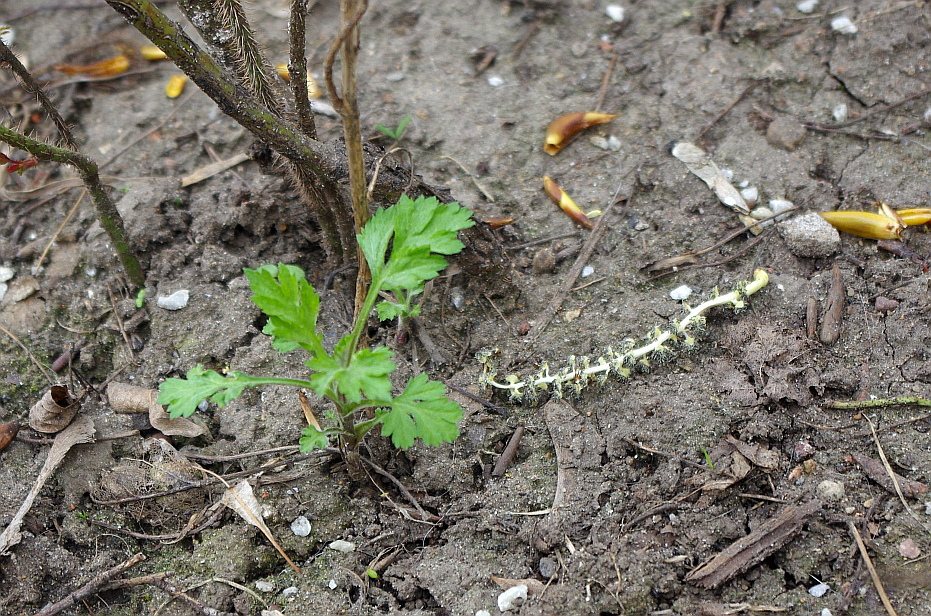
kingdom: Plantae
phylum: Tracheophyta
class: Magnoliopsida
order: Asterales
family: Asteraceae
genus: Artemisia
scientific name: Artemisia vulgaris
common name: Mugwort
